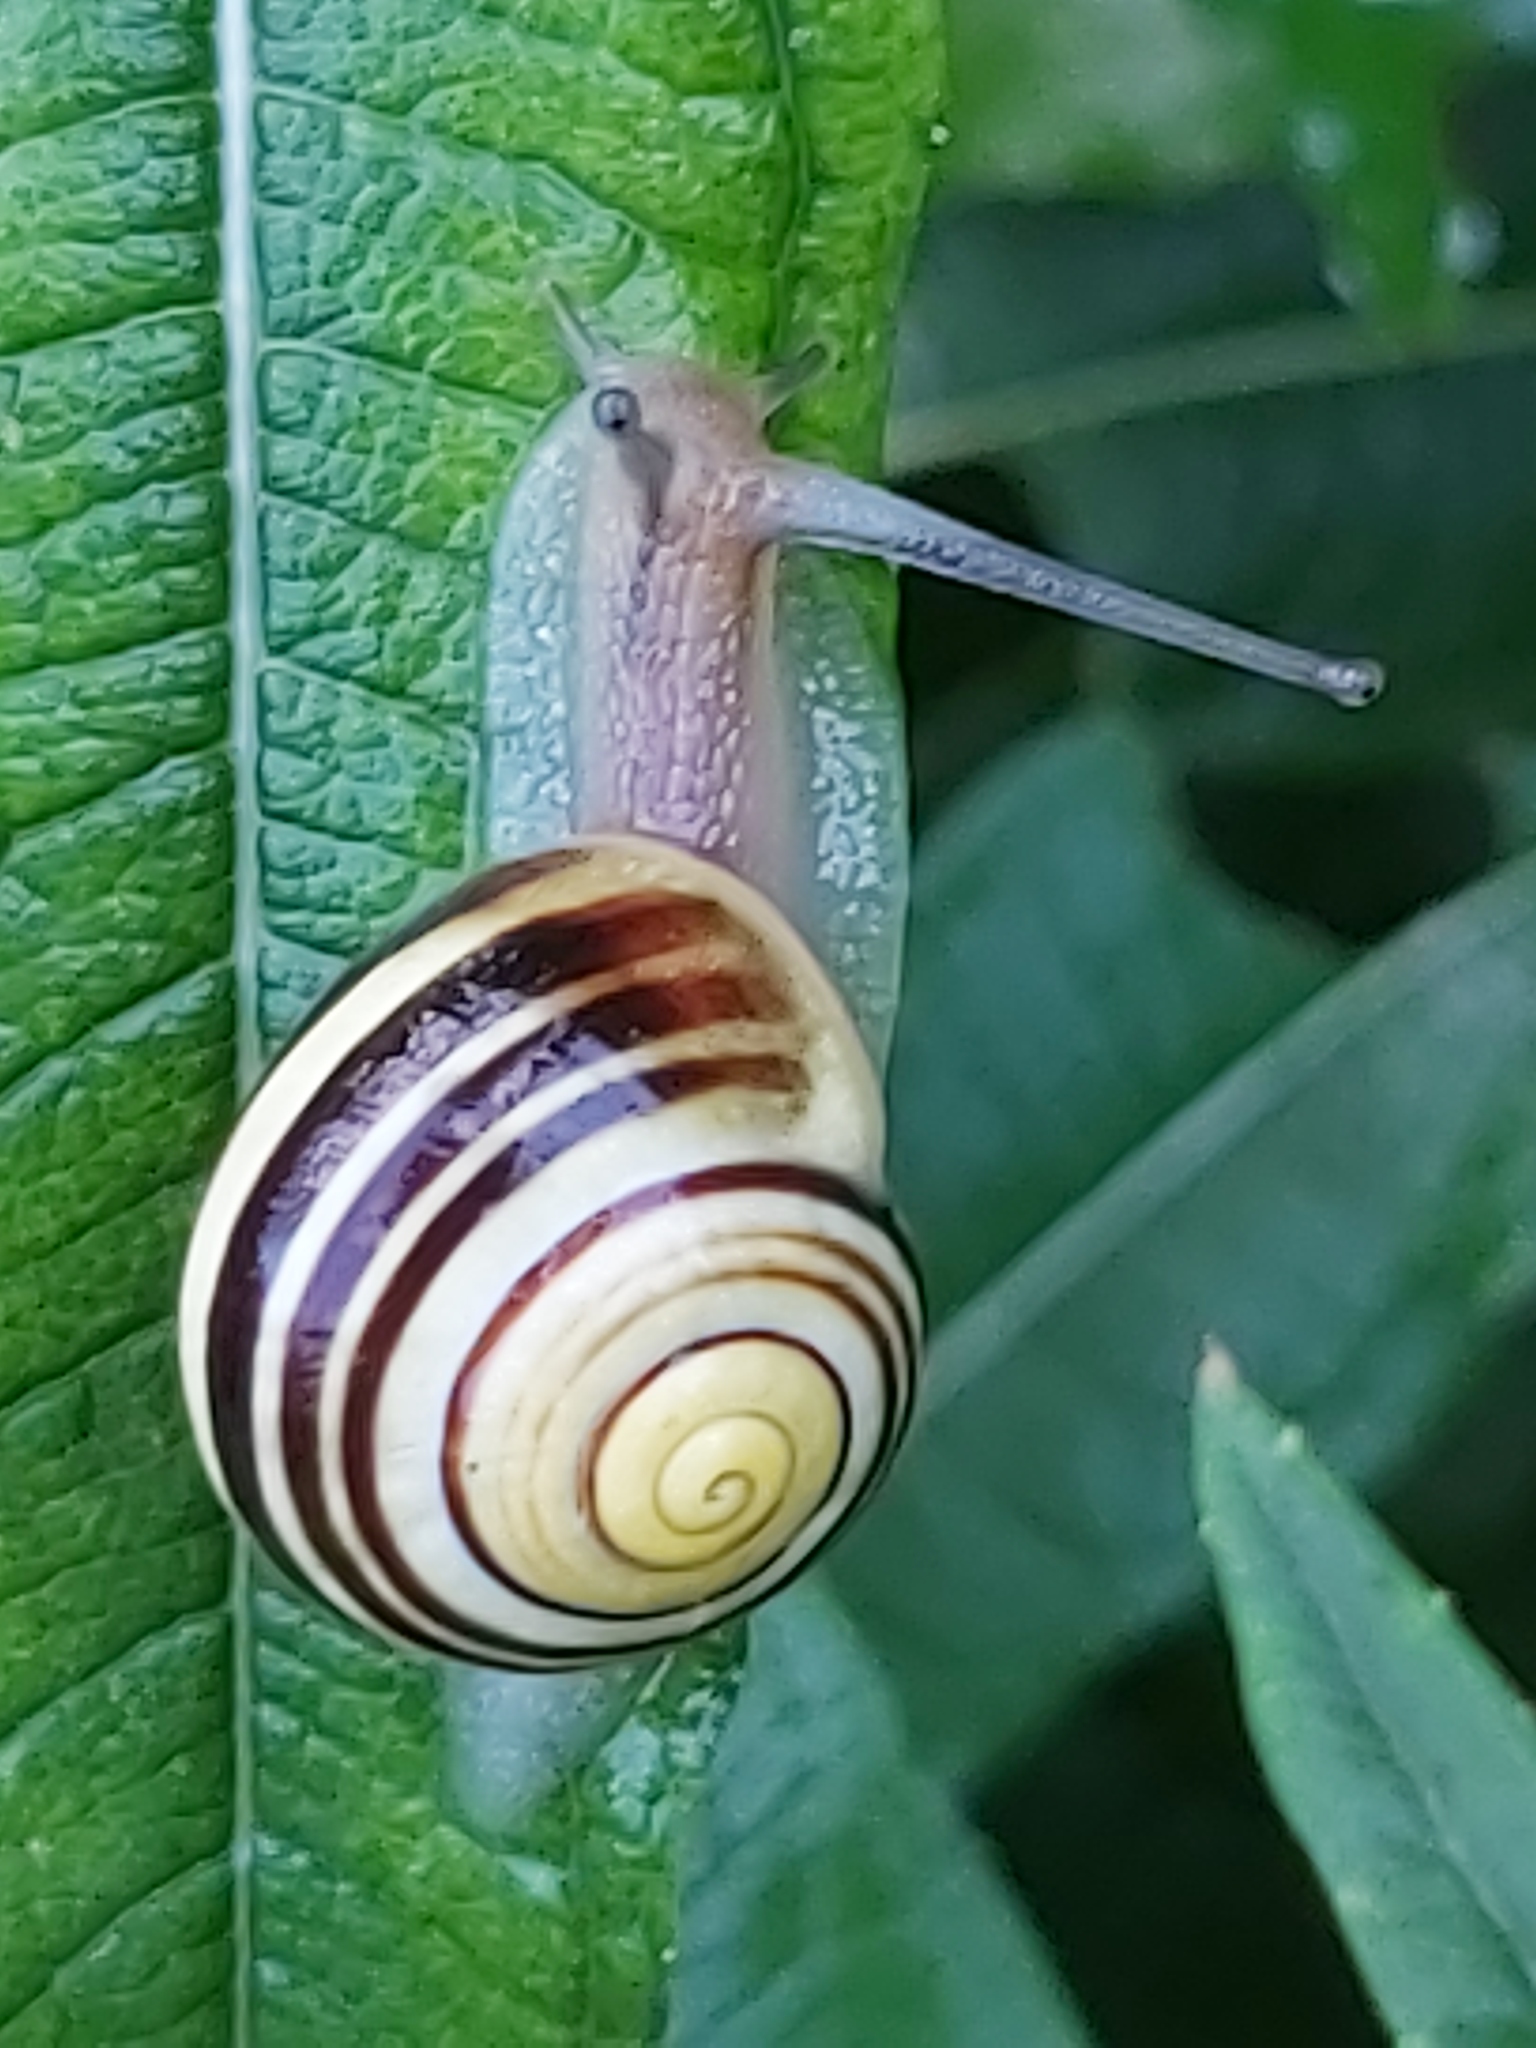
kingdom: Animalia
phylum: Mollusca
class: Gastropoda
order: Stylommatophora
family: Helicidae
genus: Cepaea
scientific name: Cepaea hortensis
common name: White-lip gardensnail
